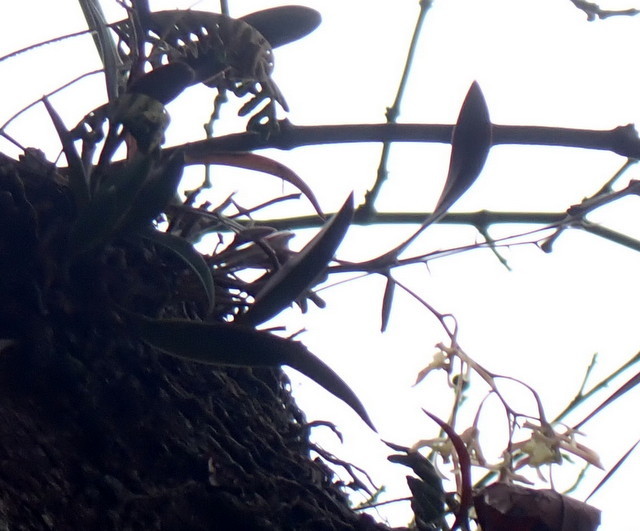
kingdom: Plantae
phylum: Tracheophyta
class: Liliopsida
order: Asparagales
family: Orchidaceae
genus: Epidendrum
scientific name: Epidendrum conopseum
